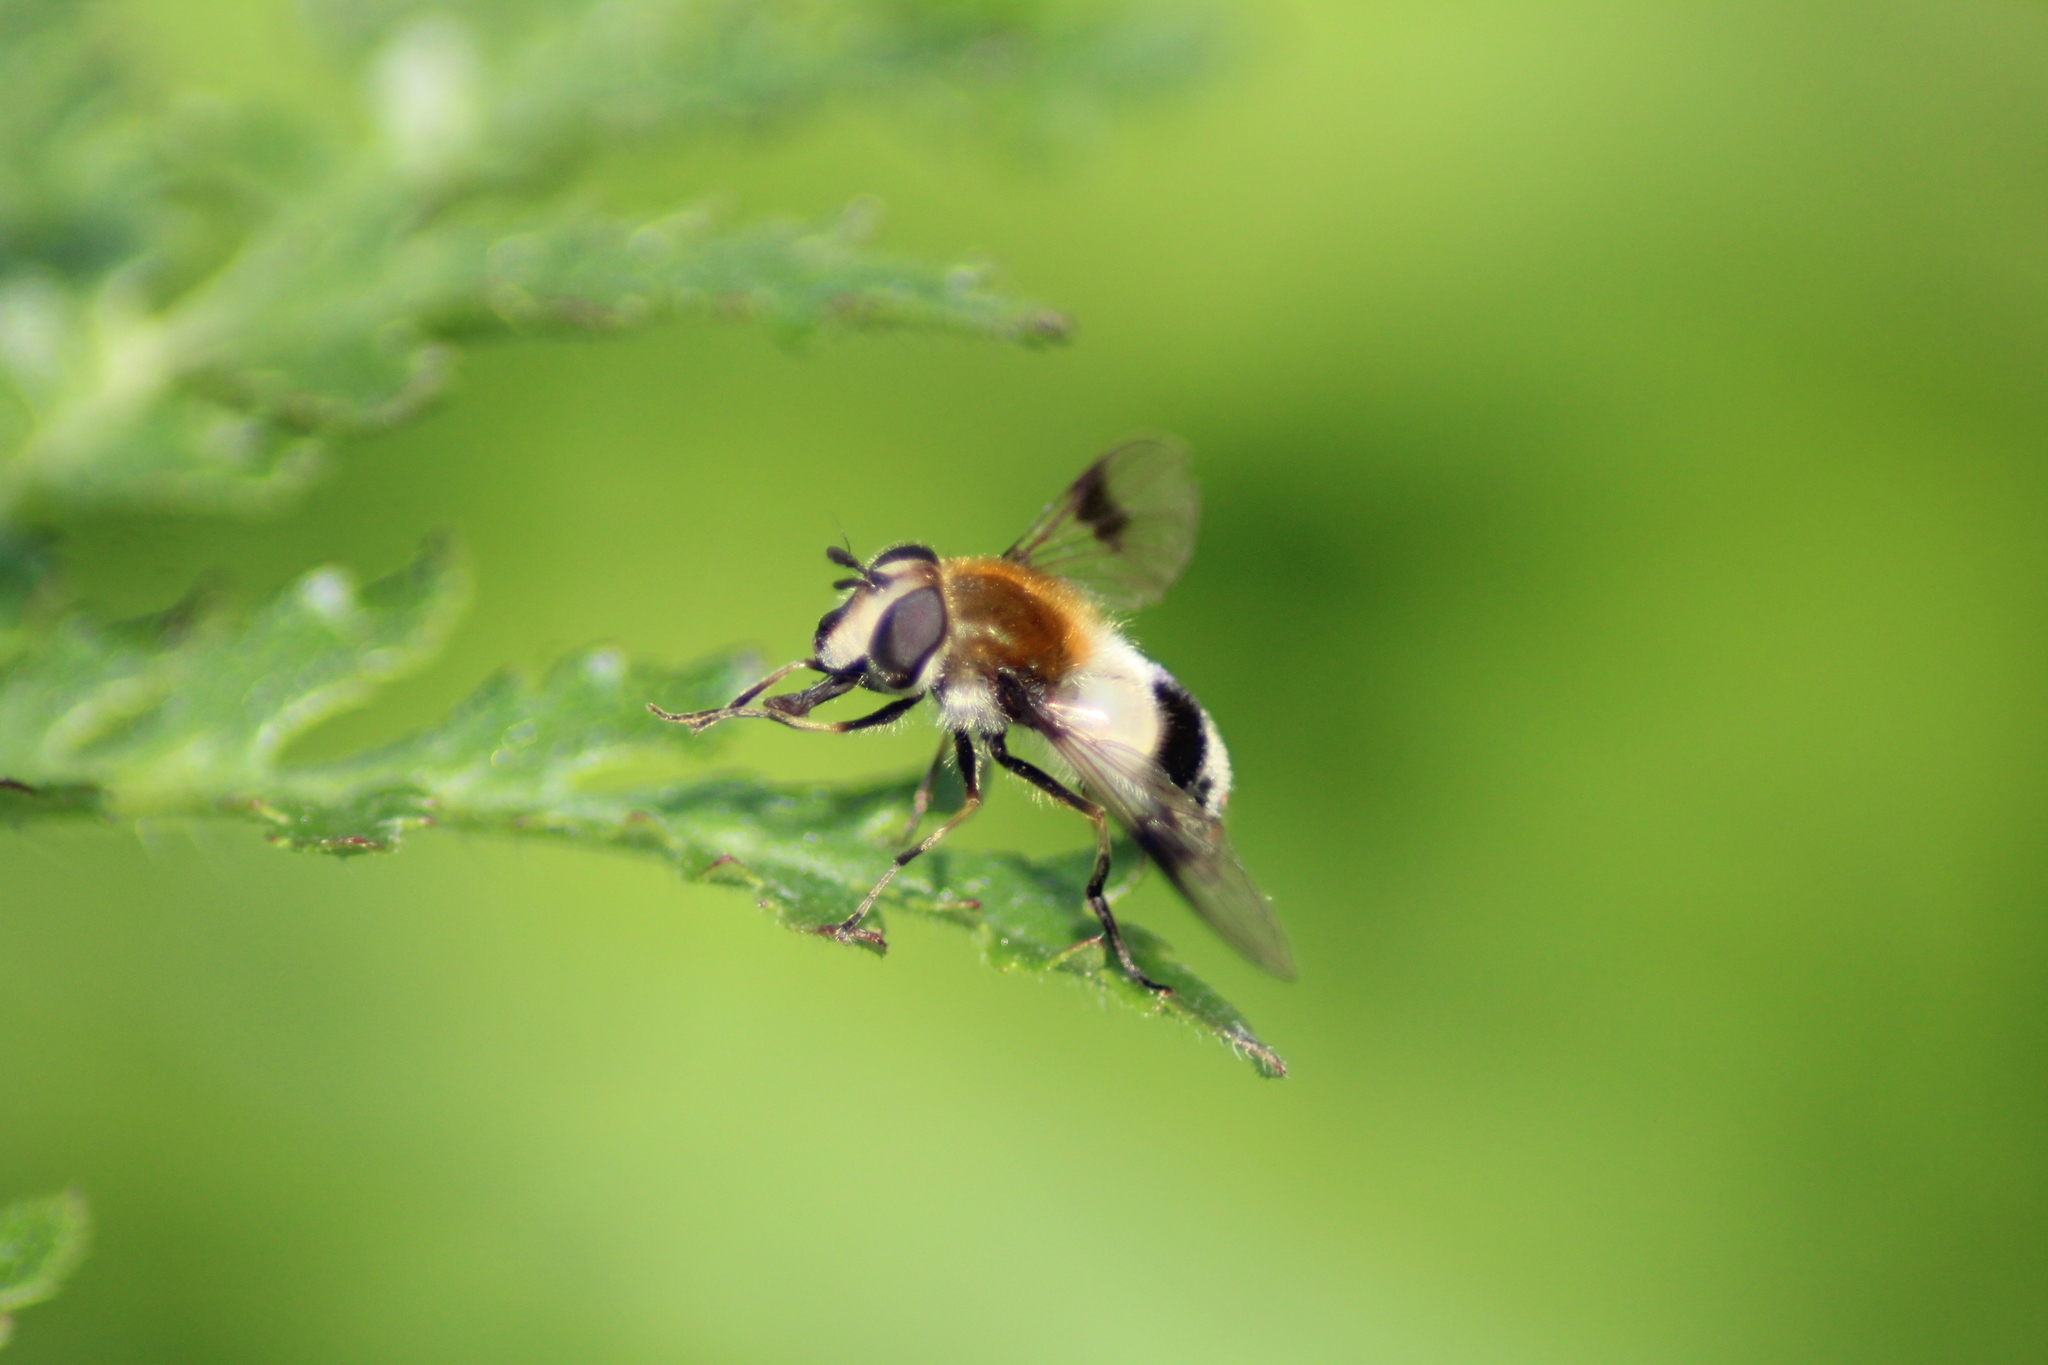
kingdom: Animalia
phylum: Arthropoda
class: Insecta
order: Diptera
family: Syrphidae
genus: Leucozona
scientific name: Leucozona lucorum
